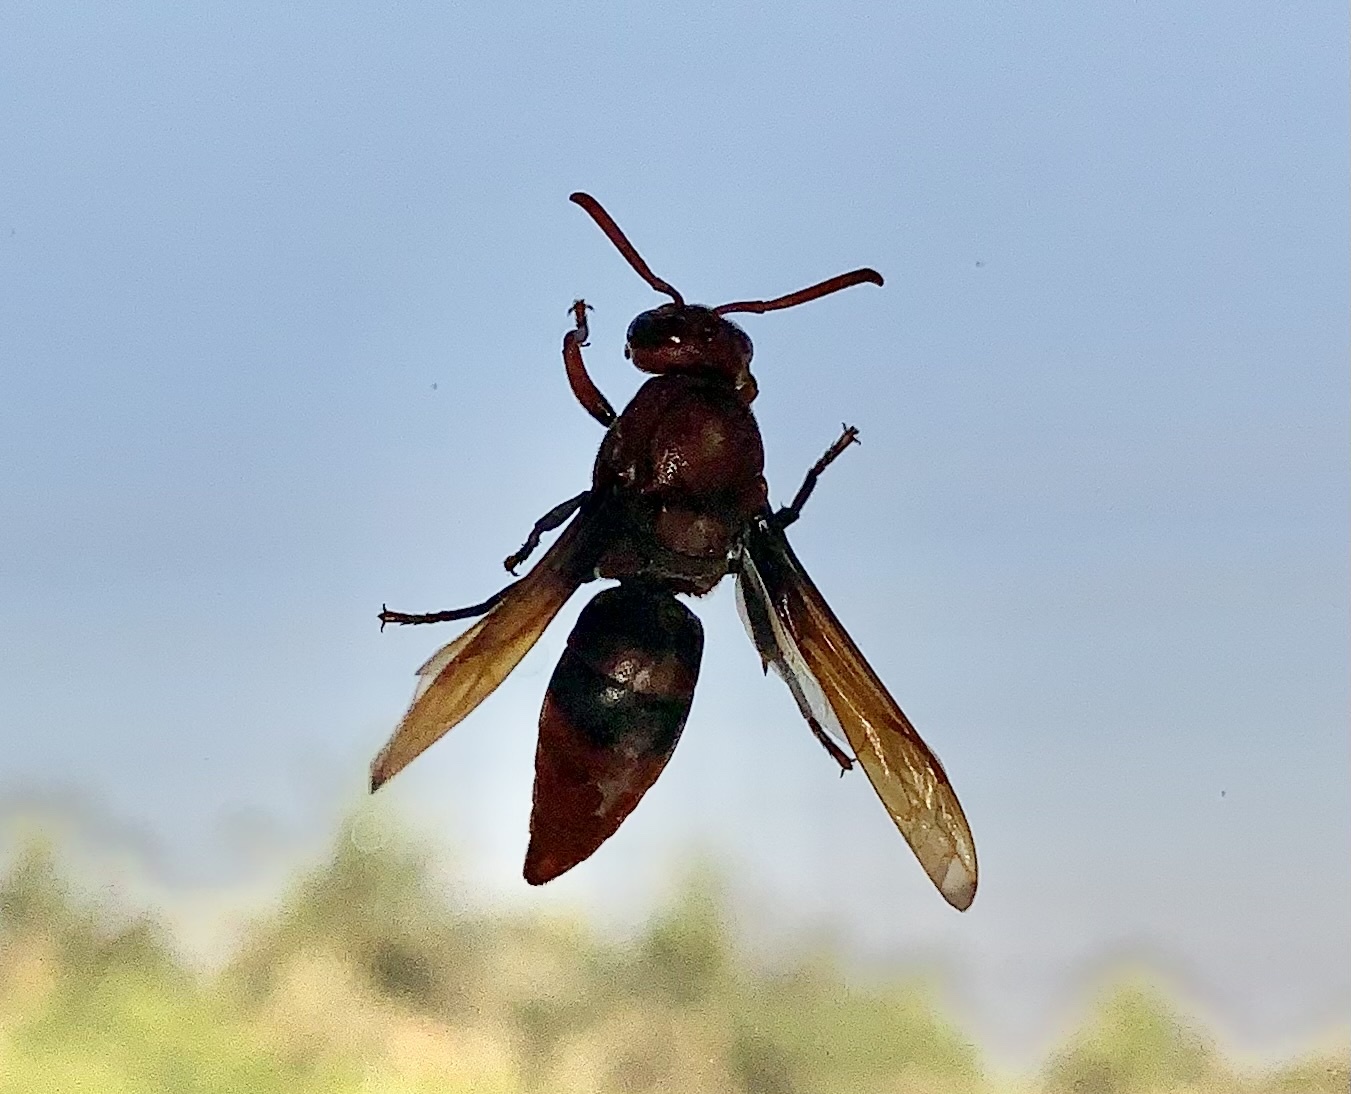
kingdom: Animalia
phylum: Arthropoda
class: Insecta
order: Hymenoptera
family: Eumenidae
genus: Rhynchium
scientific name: Rhynchium brunneum
